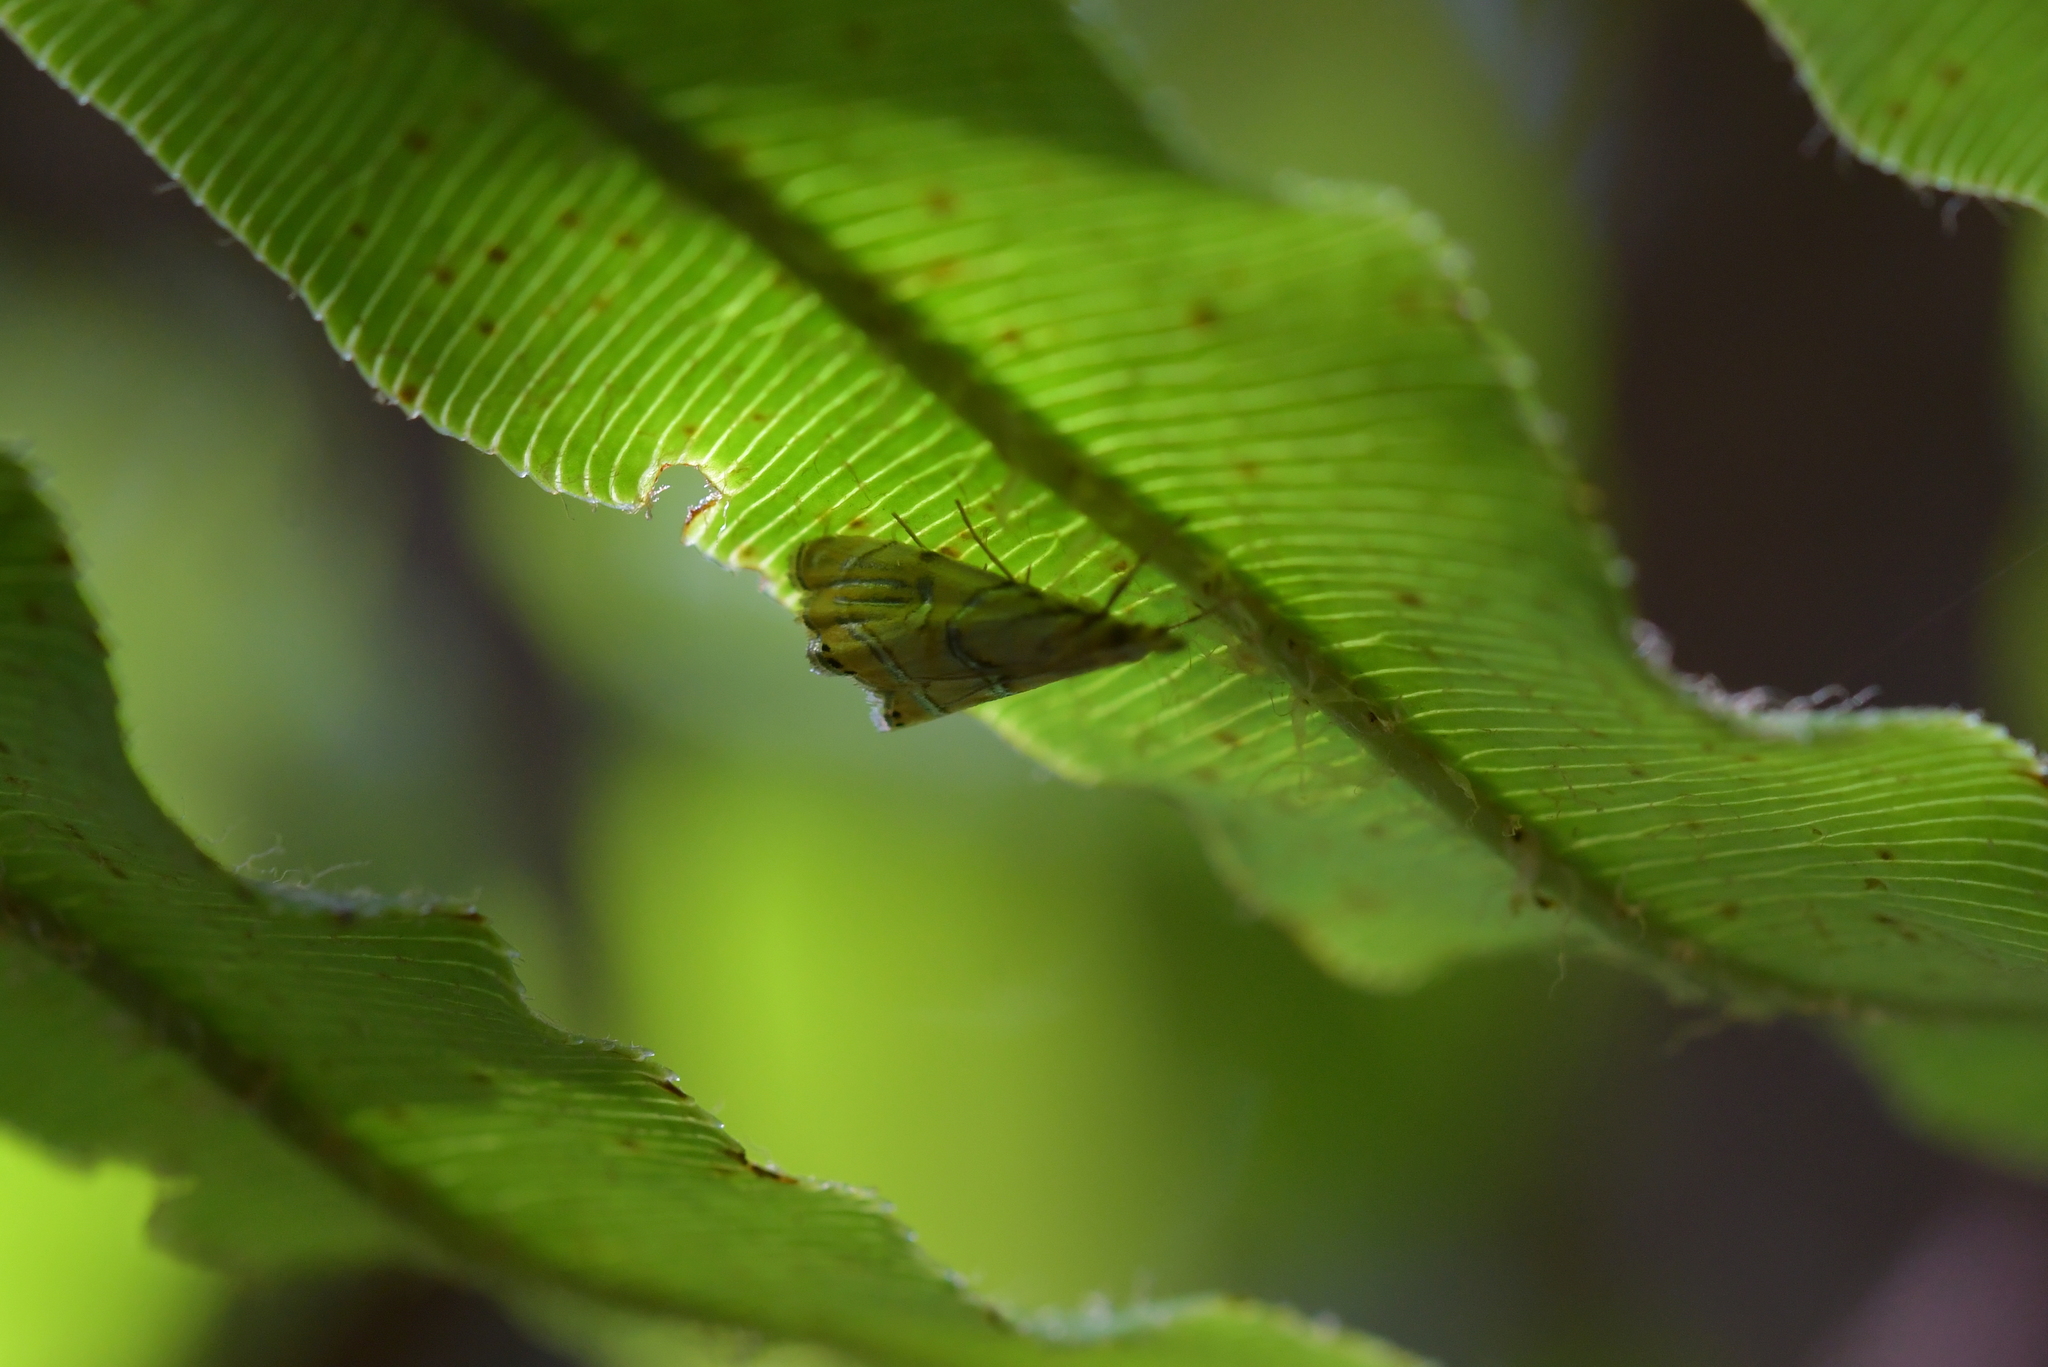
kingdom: Animalia
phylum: Arthropoda
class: Insecta
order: Lepidoptera
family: Crambidae
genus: Glaucocharis
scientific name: Glaucocharis auriscriptella
